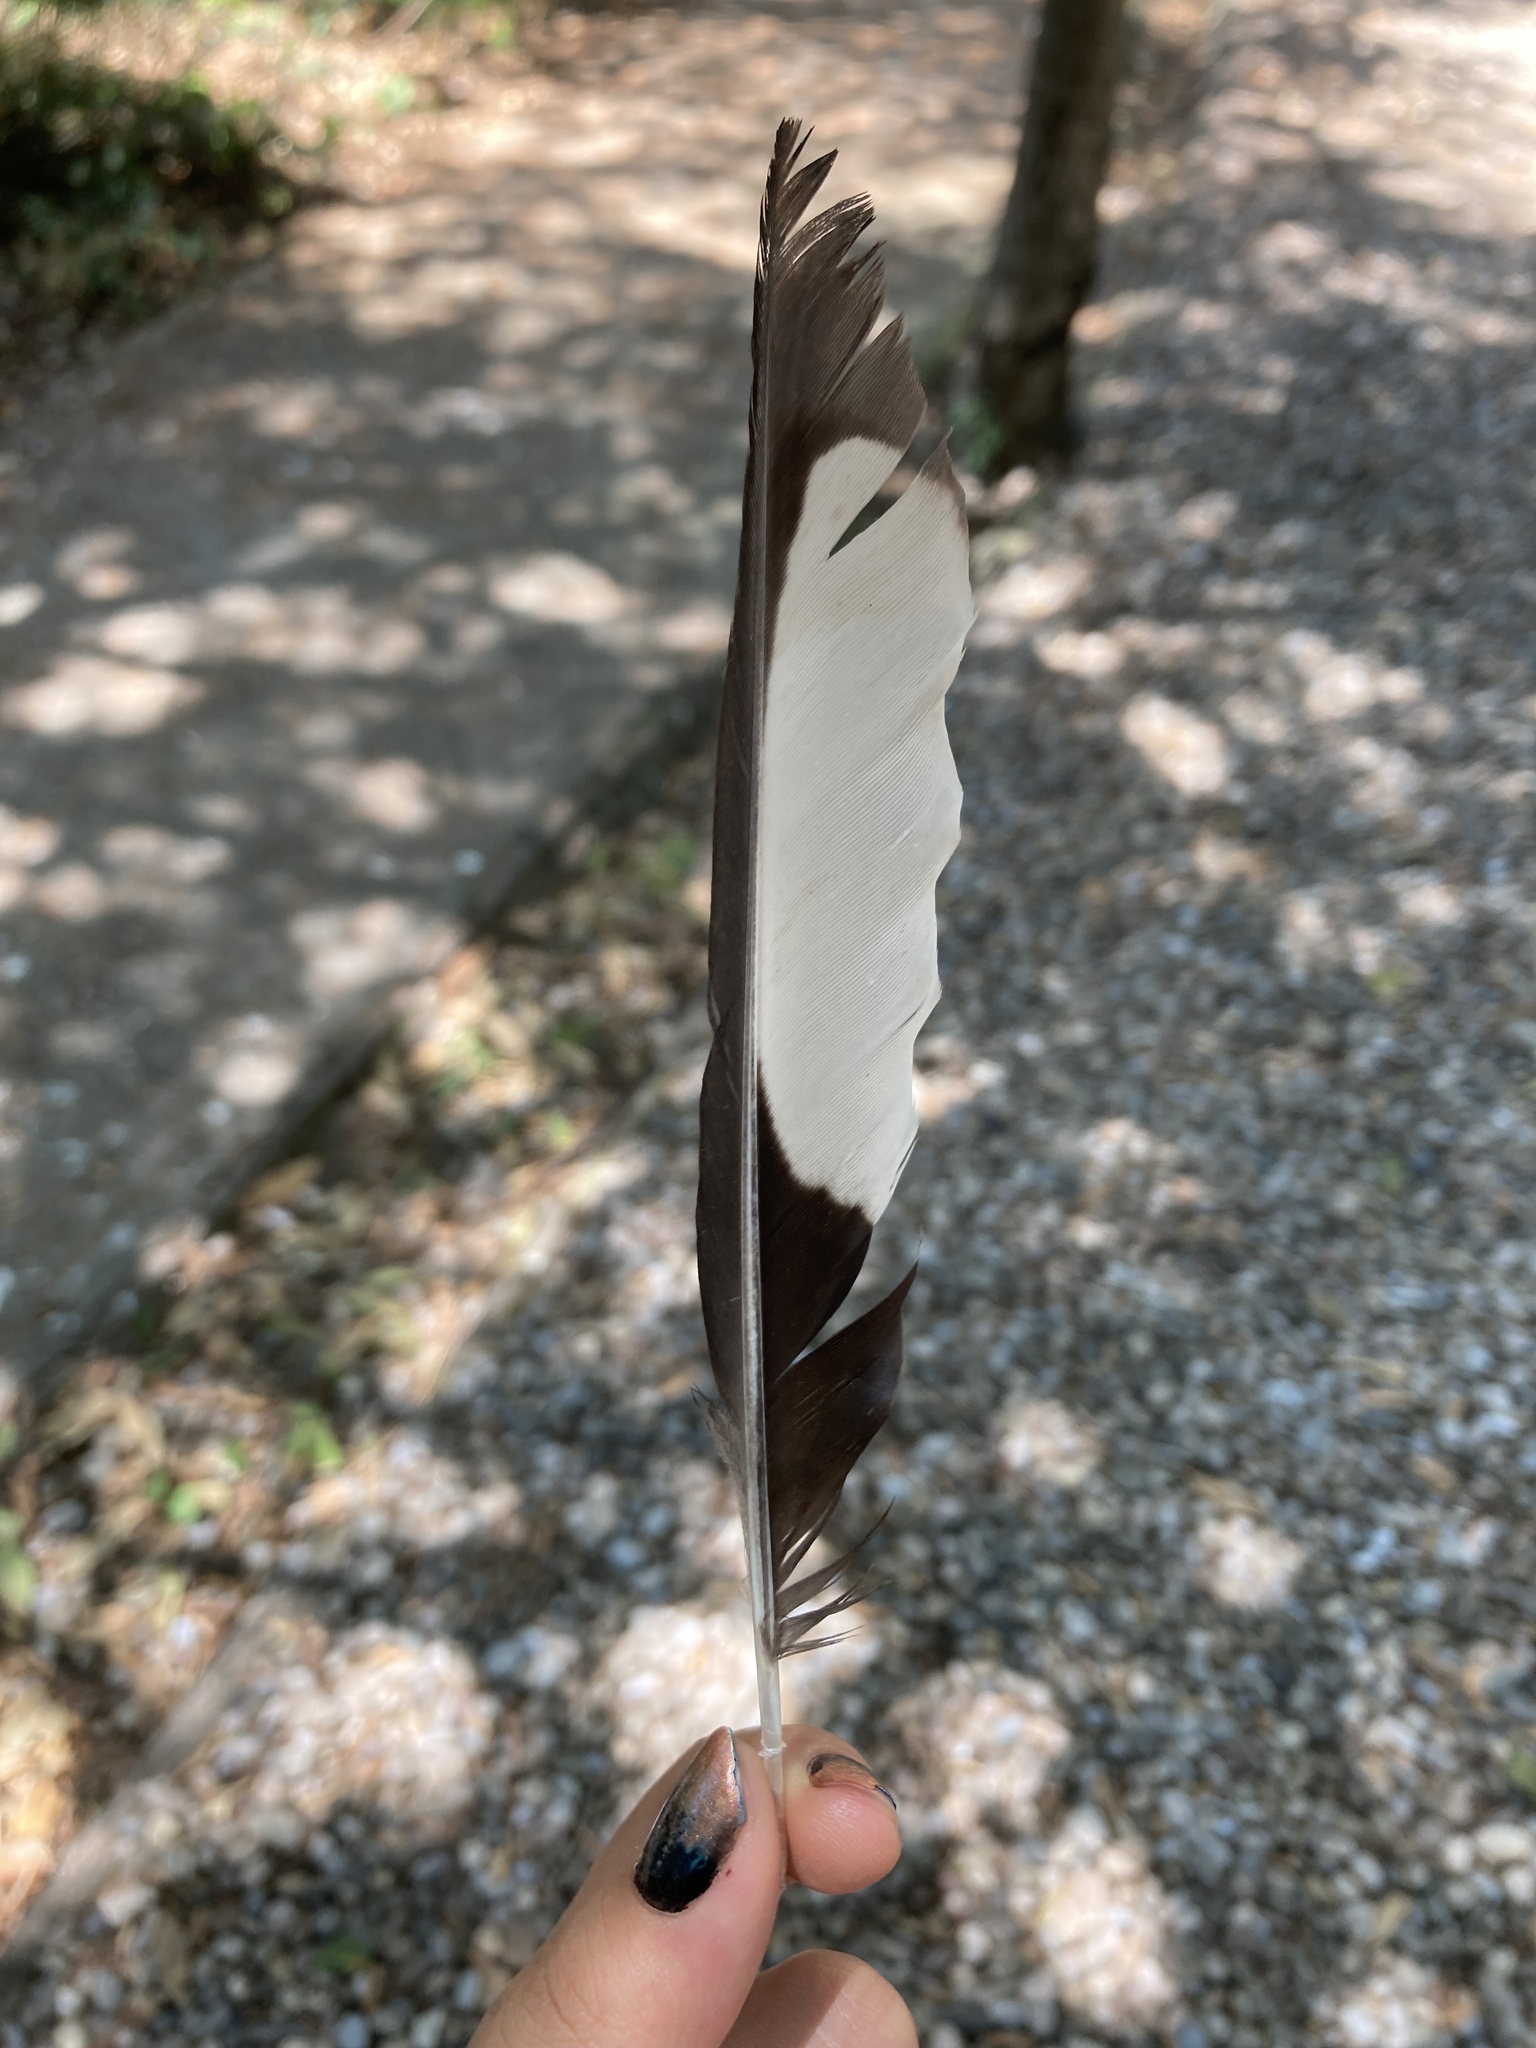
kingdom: Animalia
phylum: Chordata
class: Aves
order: Passeriformes
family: Corvidae
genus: Pica
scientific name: Pica pica
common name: Eurasian magpie
